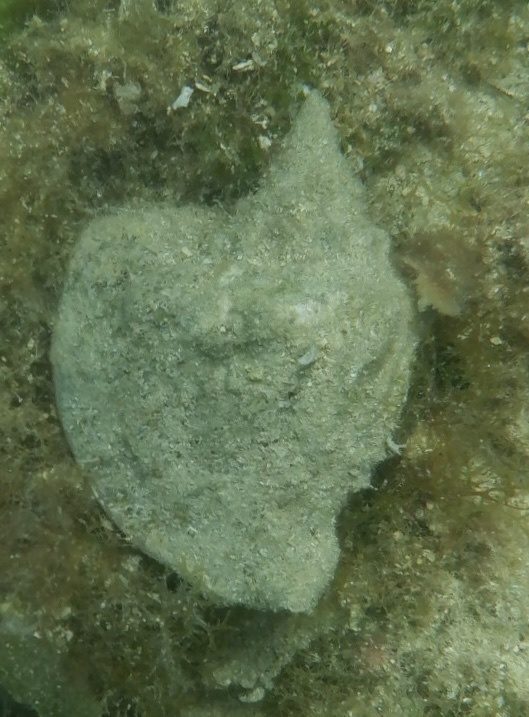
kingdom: Animalia
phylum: Mollusca
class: Gastropoda
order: Littorinimorpha
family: Strombidae
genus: Macrostrombus
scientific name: Macrostrombus costatus
